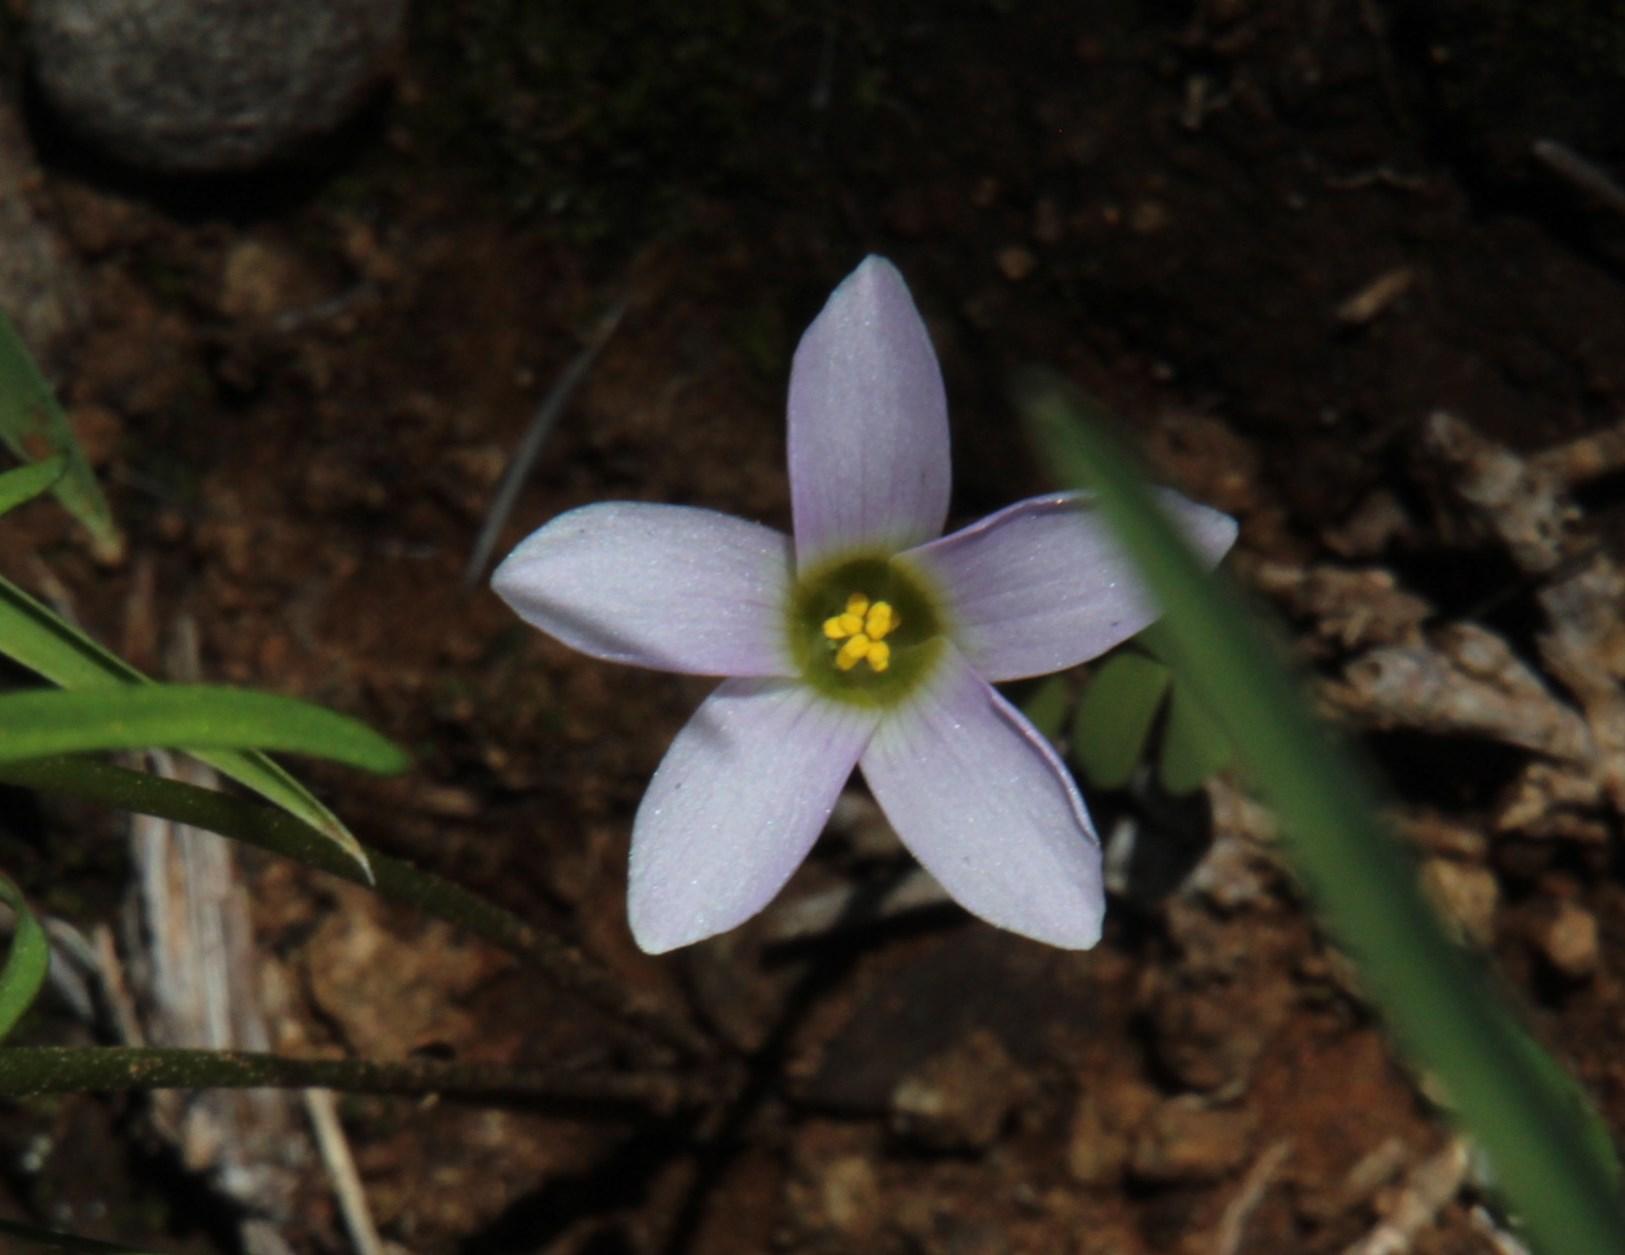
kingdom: Plantae
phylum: Tracheophyta
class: Magnoliopsida
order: Oxalidales
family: Oxalidaceae
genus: Oxalis
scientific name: Oxalis obliquifolia
